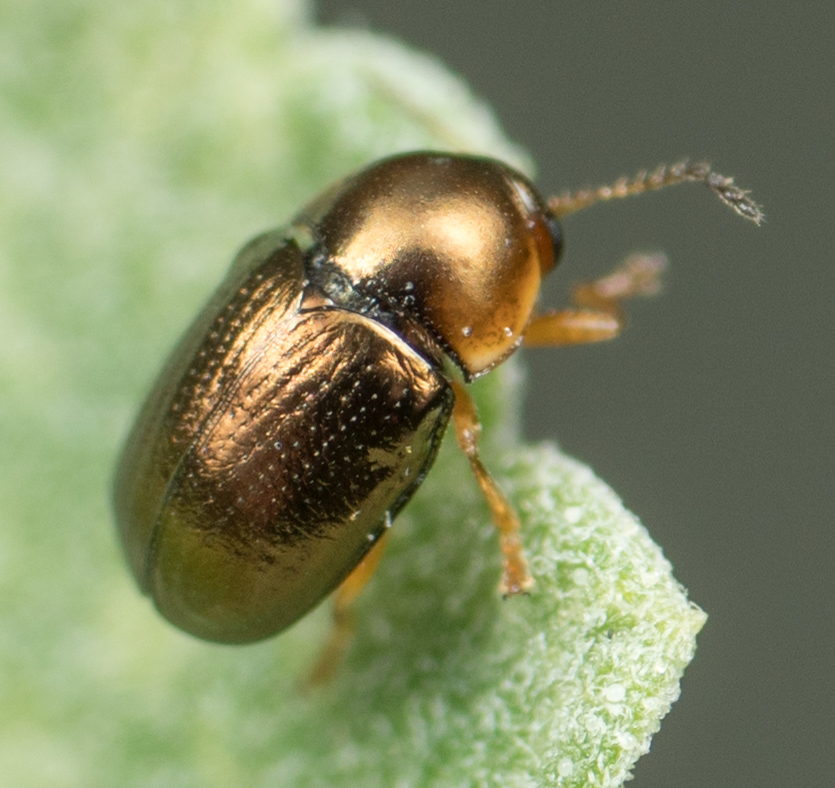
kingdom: Animalia
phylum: Arthropoda
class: Insecta
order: Coleoptera
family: Chrysomelidae
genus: Diachus
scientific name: Diachus auratus
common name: Bronze leaf beetle
